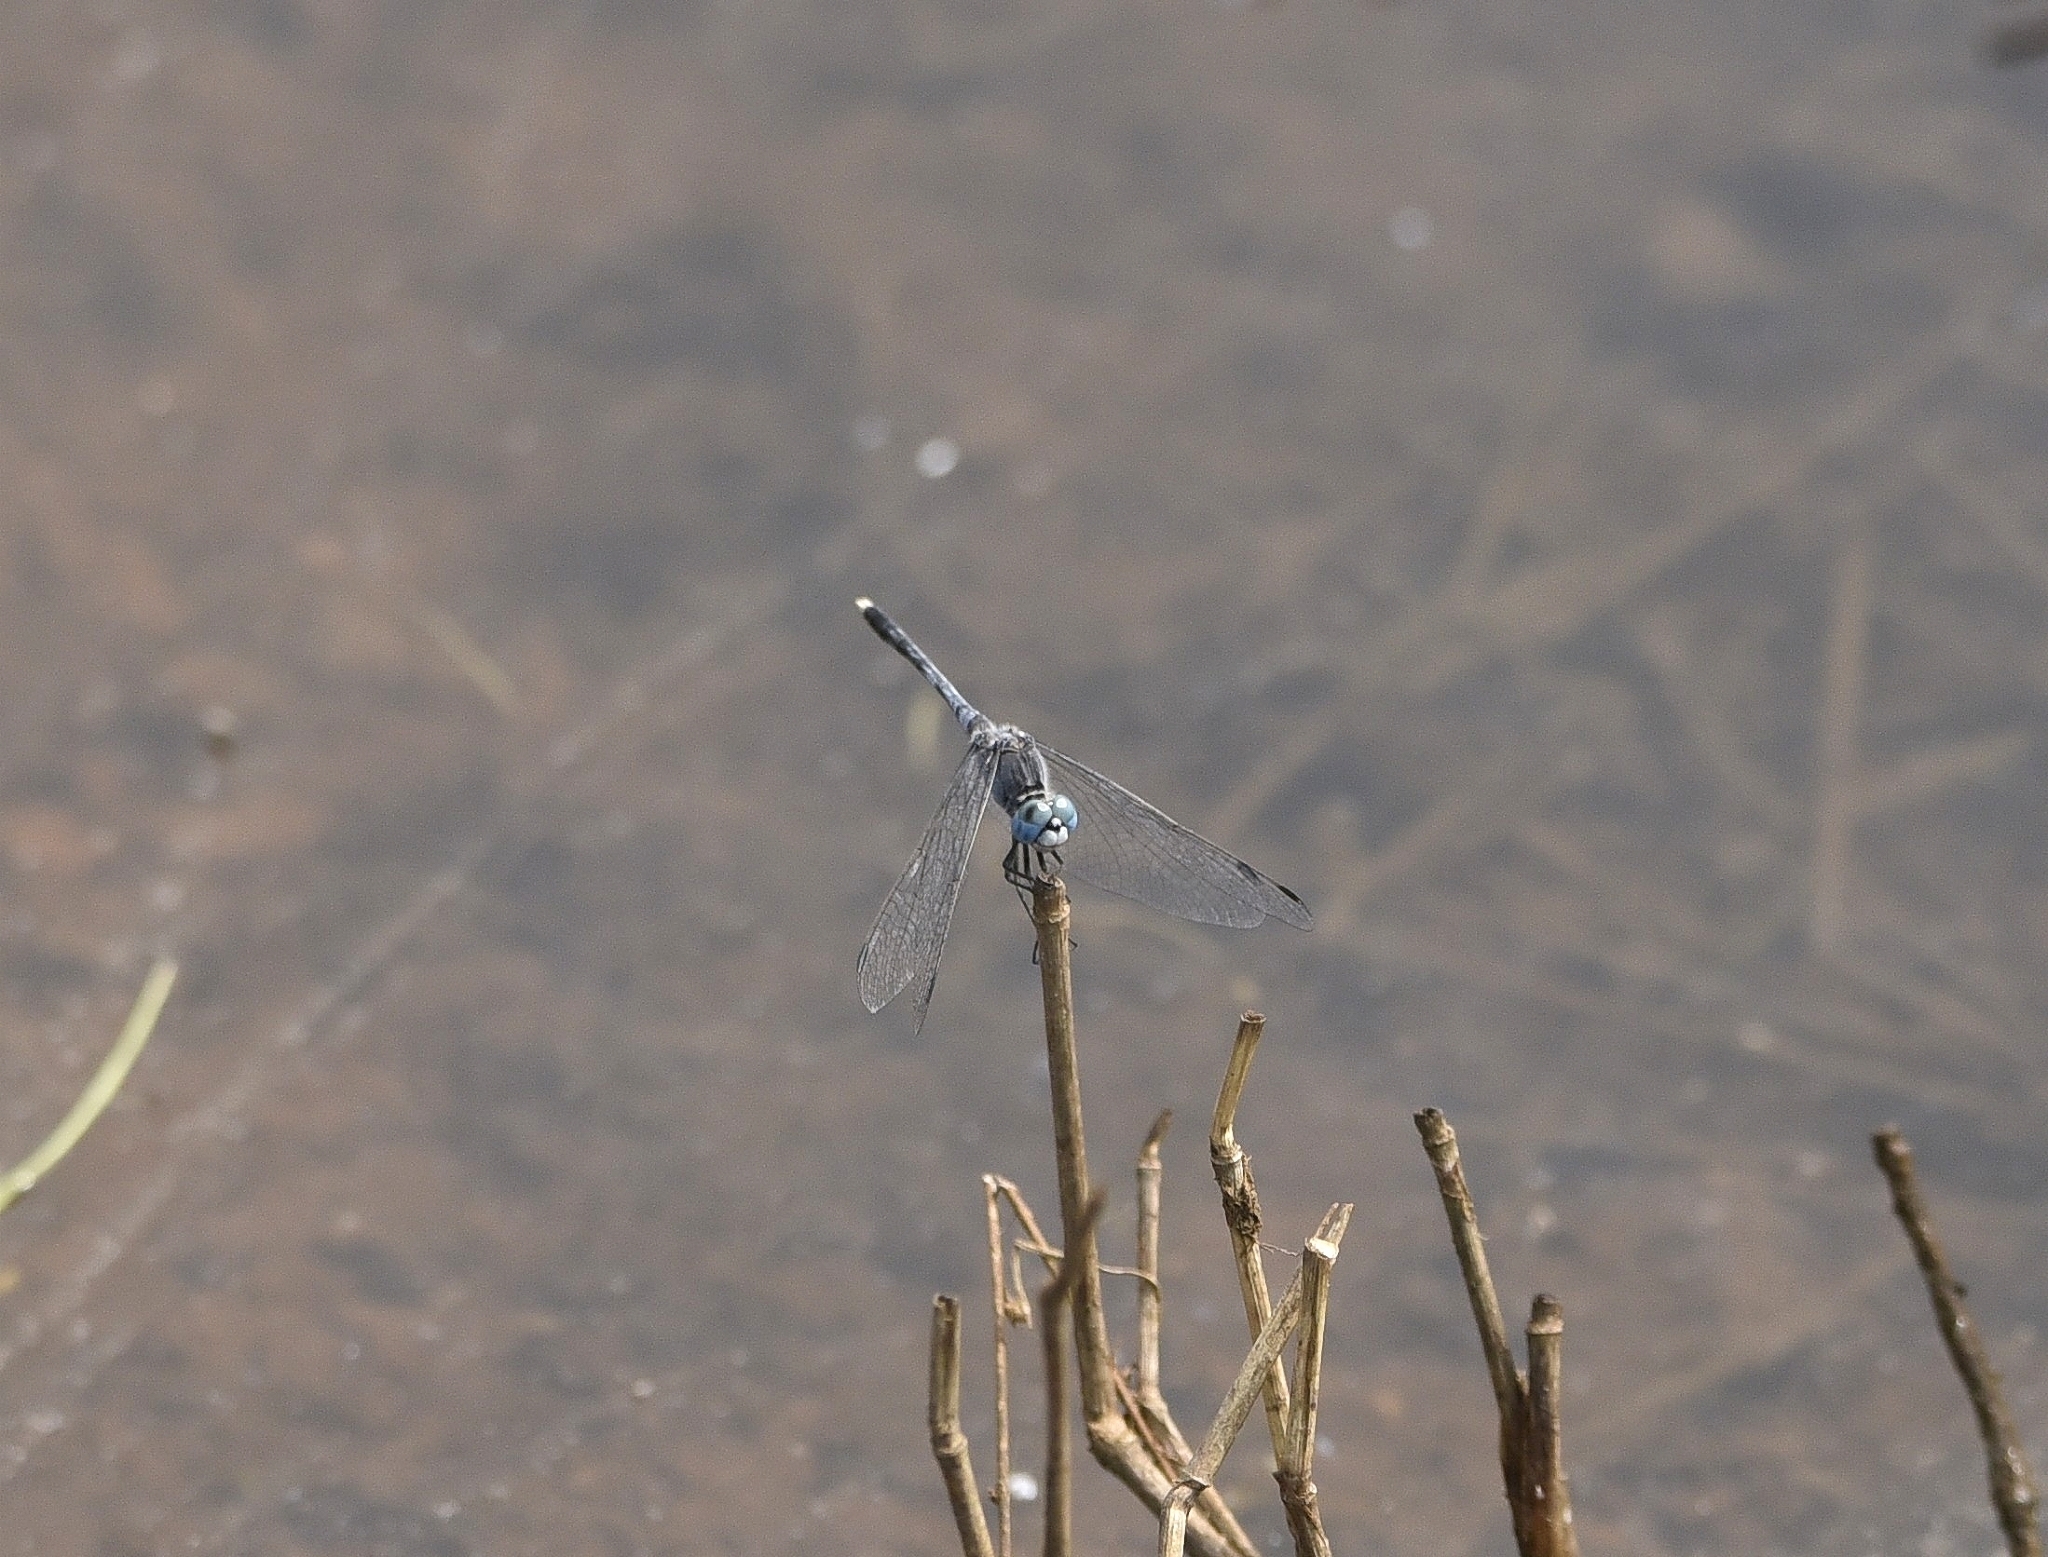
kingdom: Animalia
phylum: Arthropoda
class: Insecta
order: Odonata
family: Libellulidae
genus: Diplacodes
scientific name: Diplacodes trivialis
